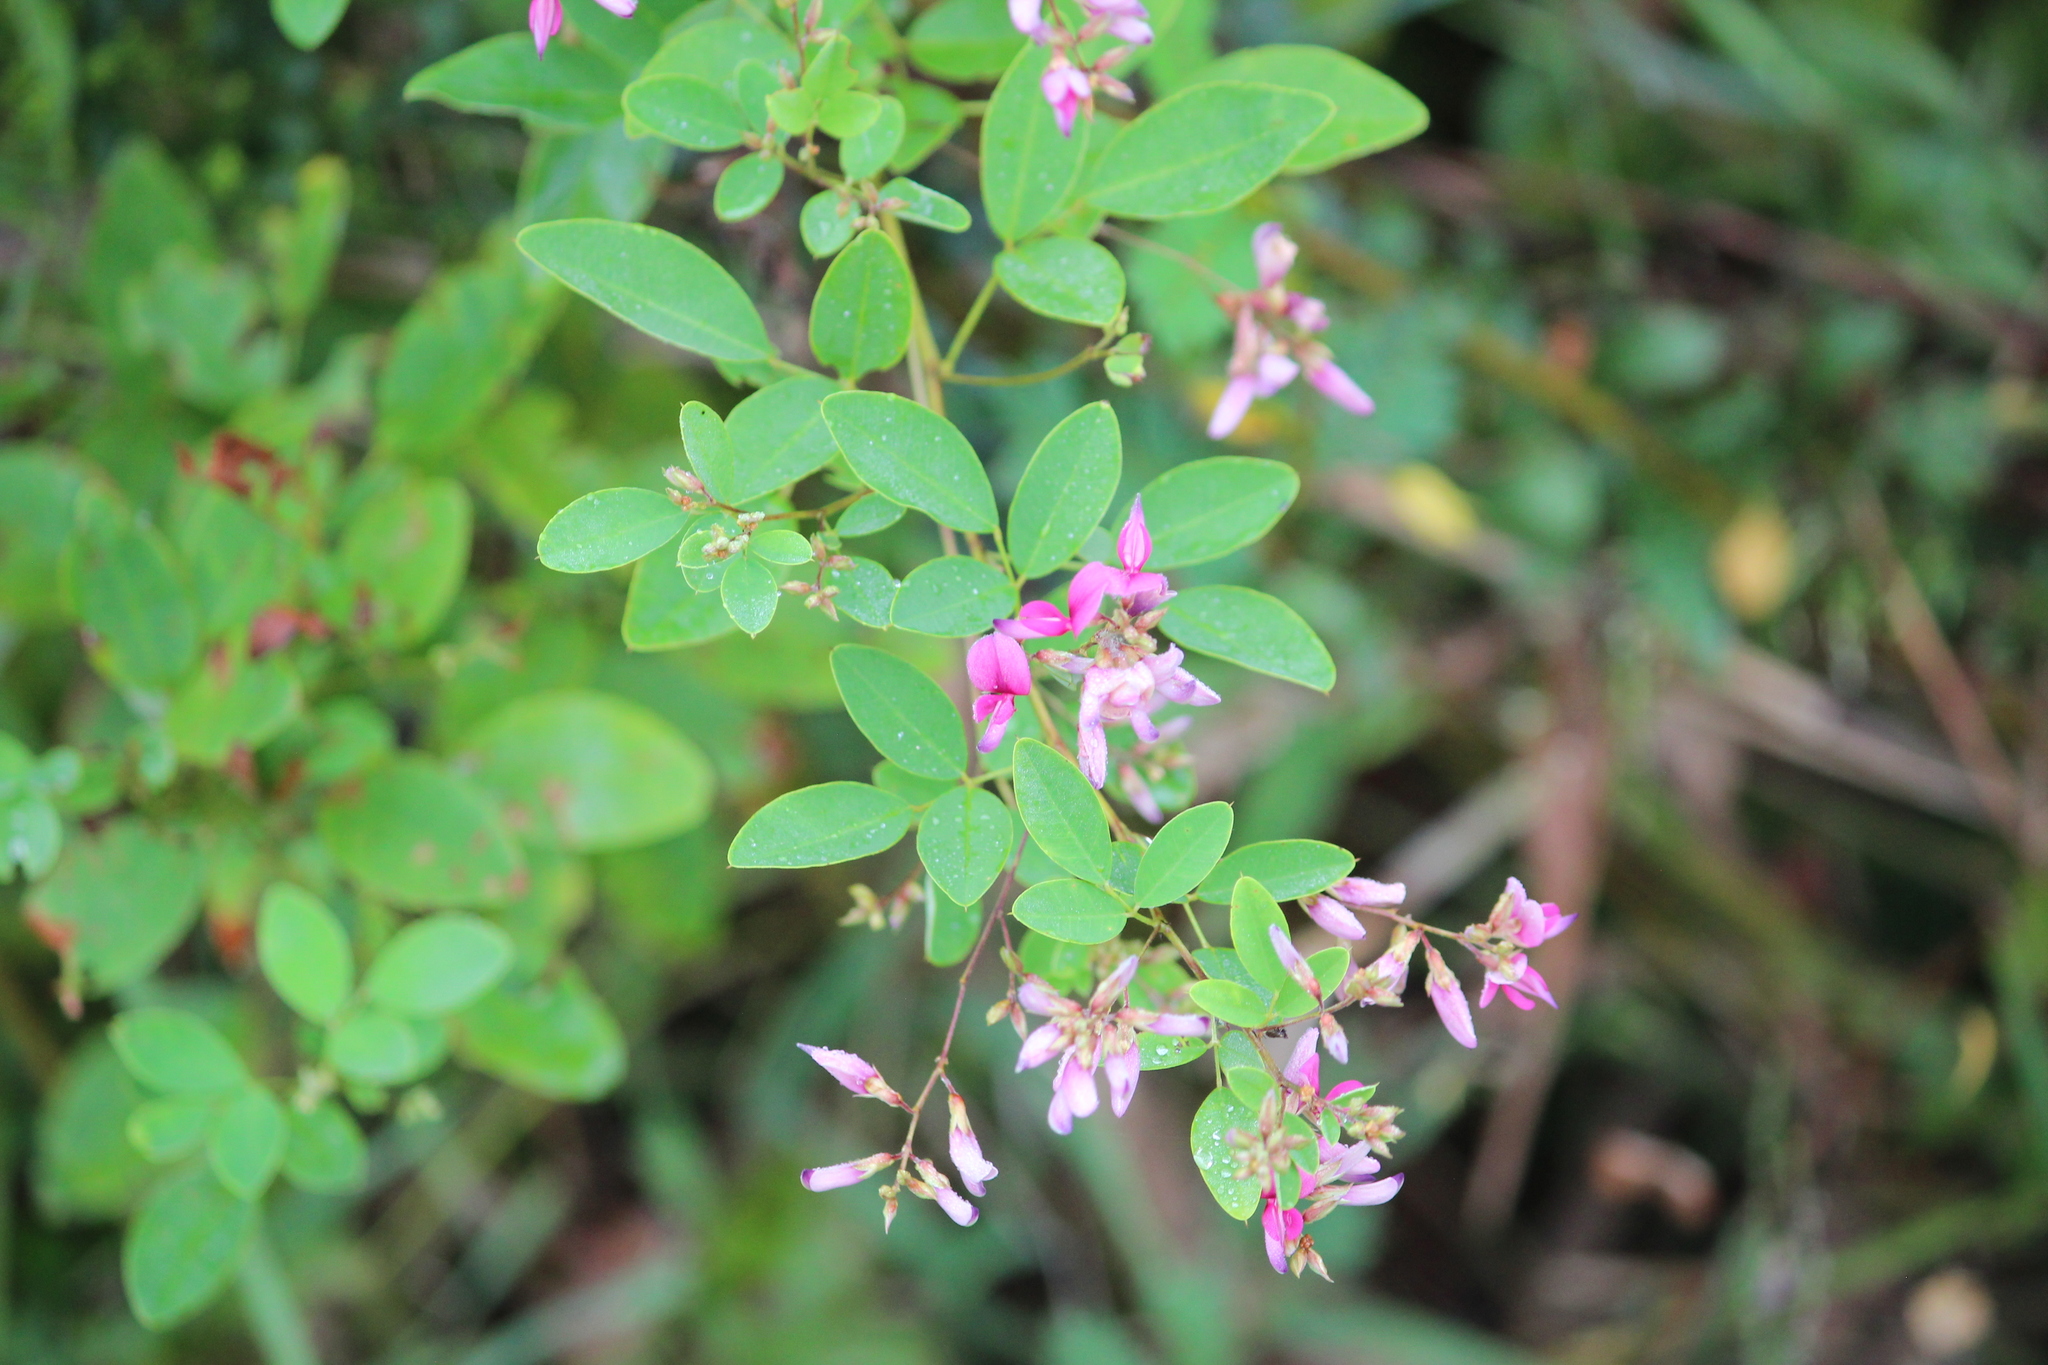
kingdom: Plantae
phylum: Tracheophyta
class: Magnoliopsida
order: Fabales
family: Fabaceae
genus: Lespedeza
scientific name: Lespedeza bicolor
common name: Shrub lespedeza
